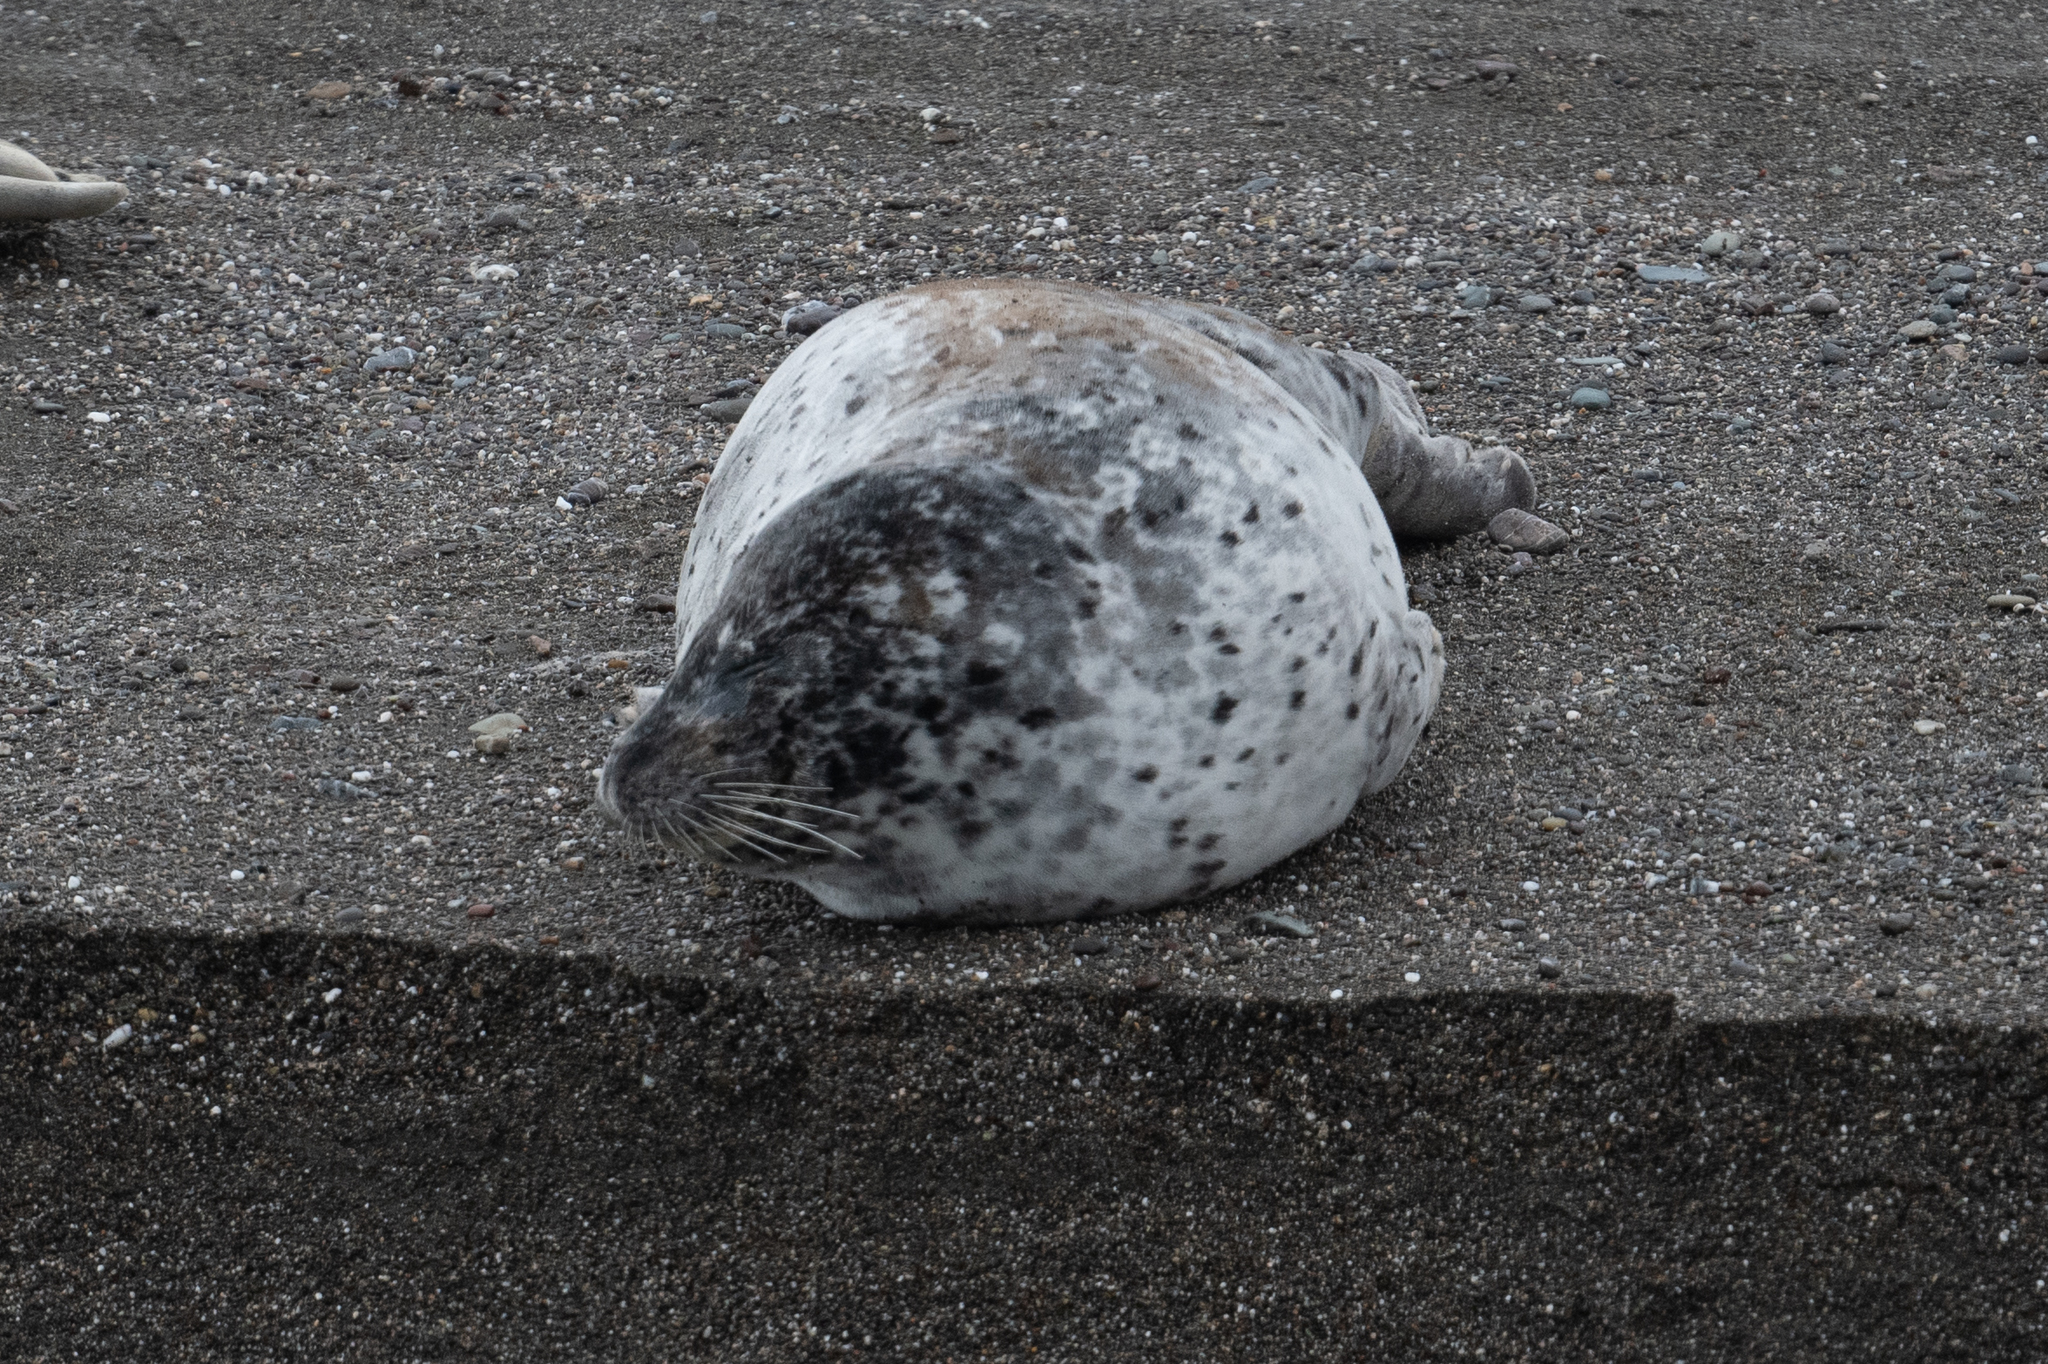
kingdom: Animalia
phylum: Chordata
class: Mammalia
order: Carnivora
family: Phocidae
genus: Phoca
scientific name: Phoca vitulina
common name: Harbor seal
